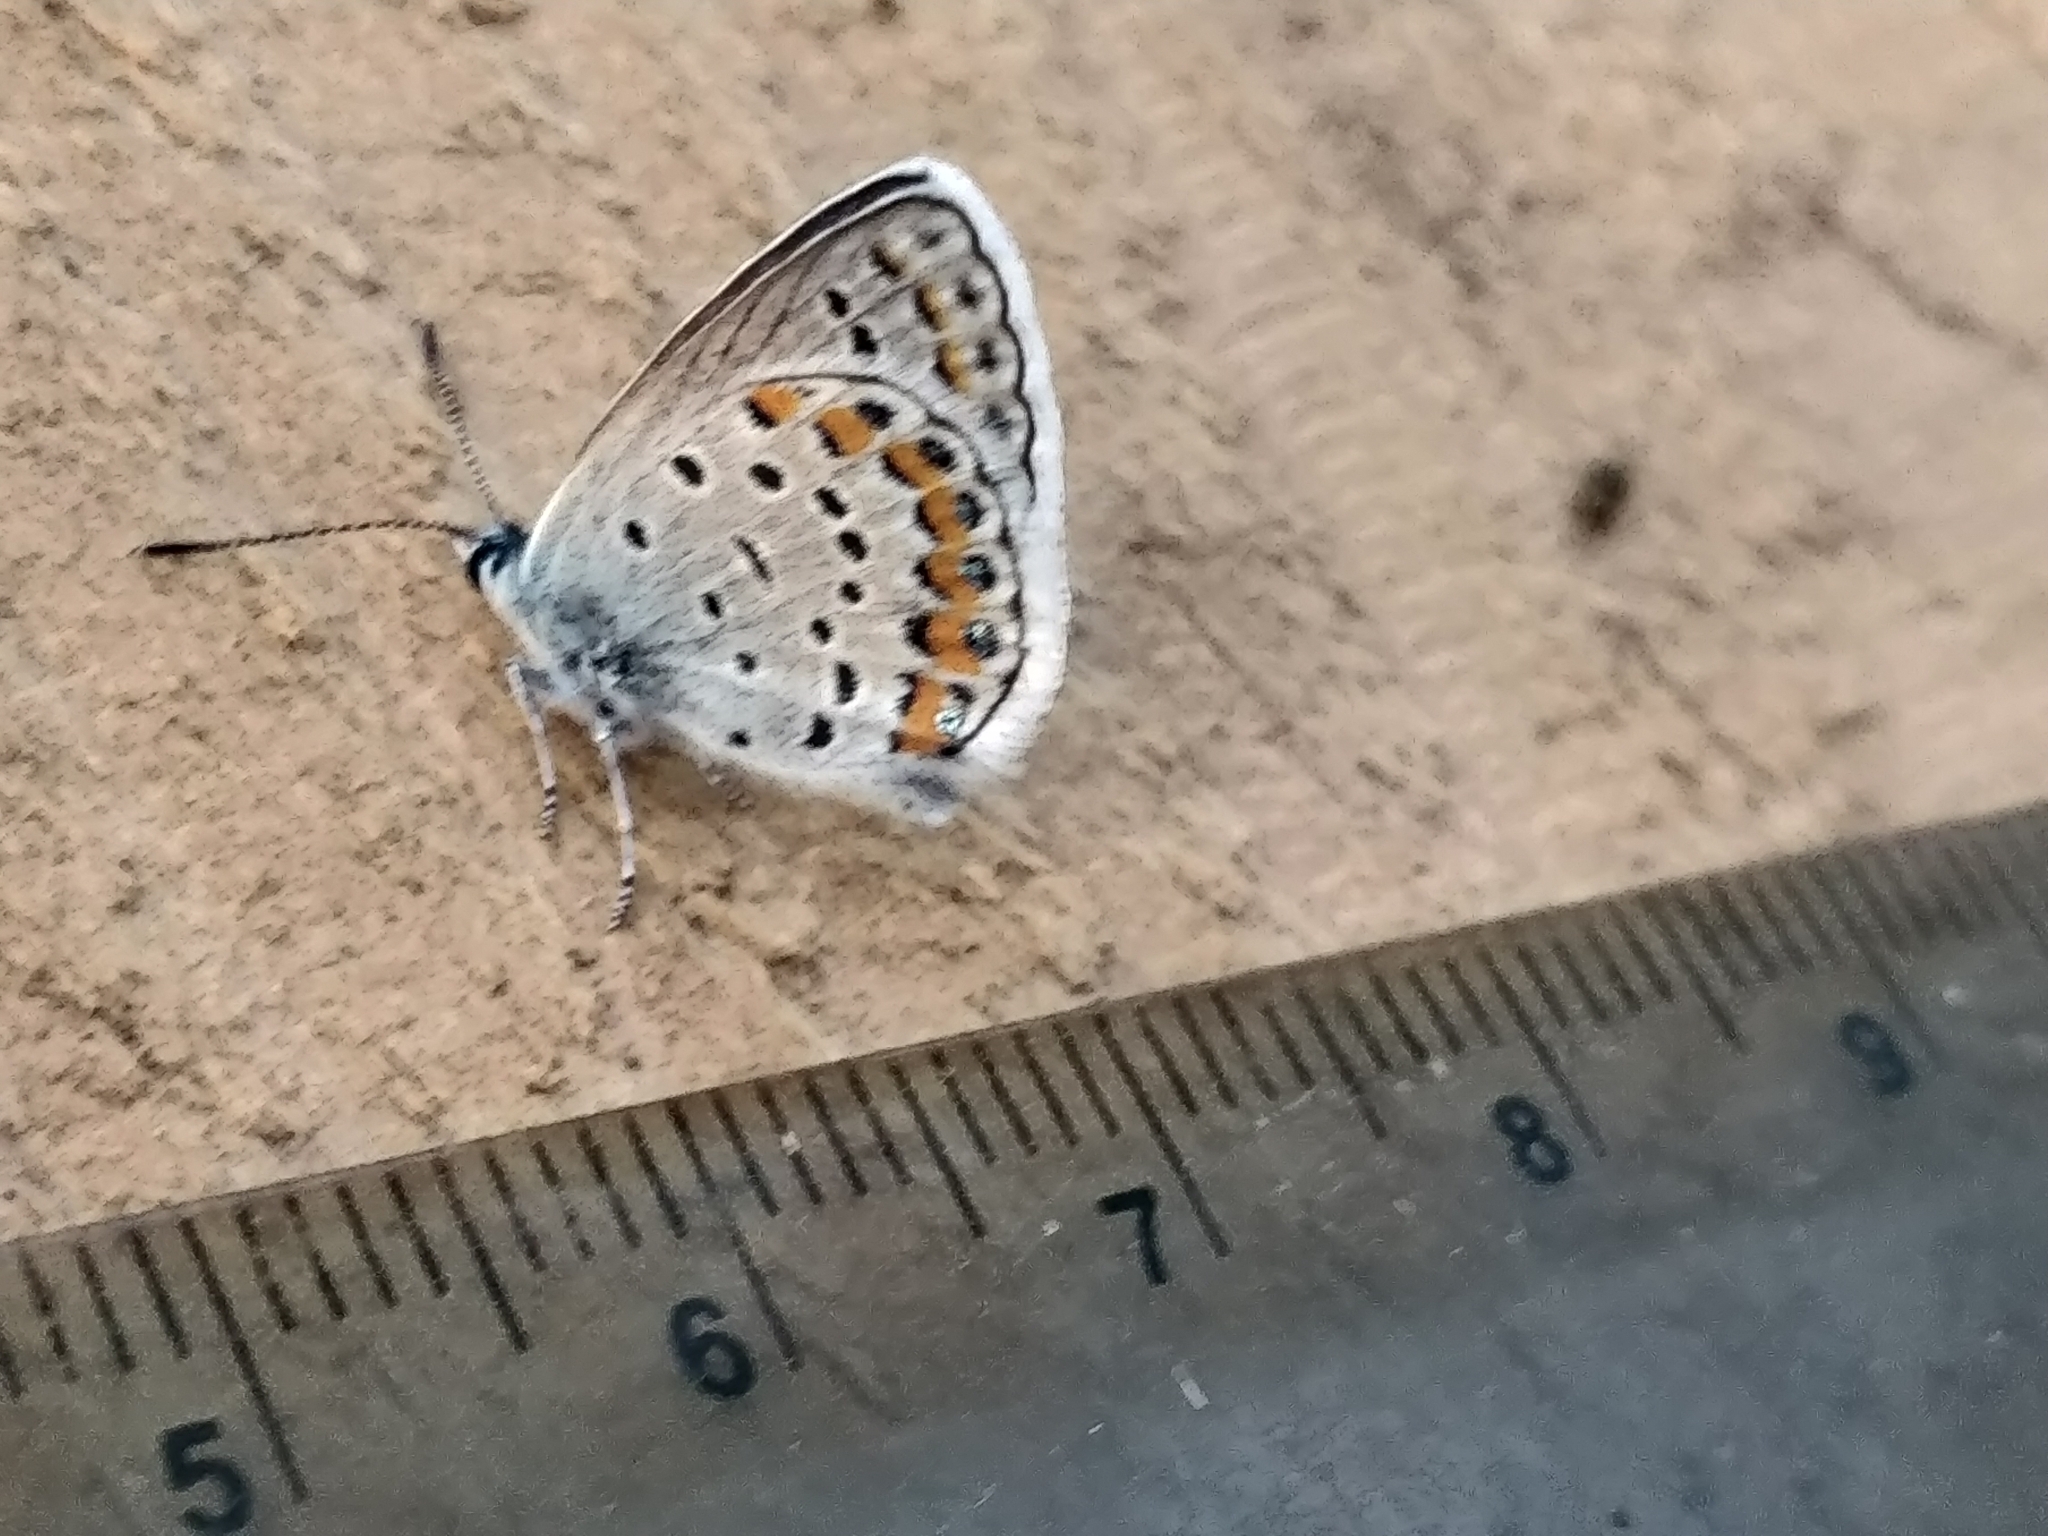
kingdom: Animalia
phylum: Arthropoda
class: Insecta
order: Lepidoptera
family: Lycaenidae
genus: Lycaeides
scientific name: Lycaeides melissa
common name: Melissa blue
